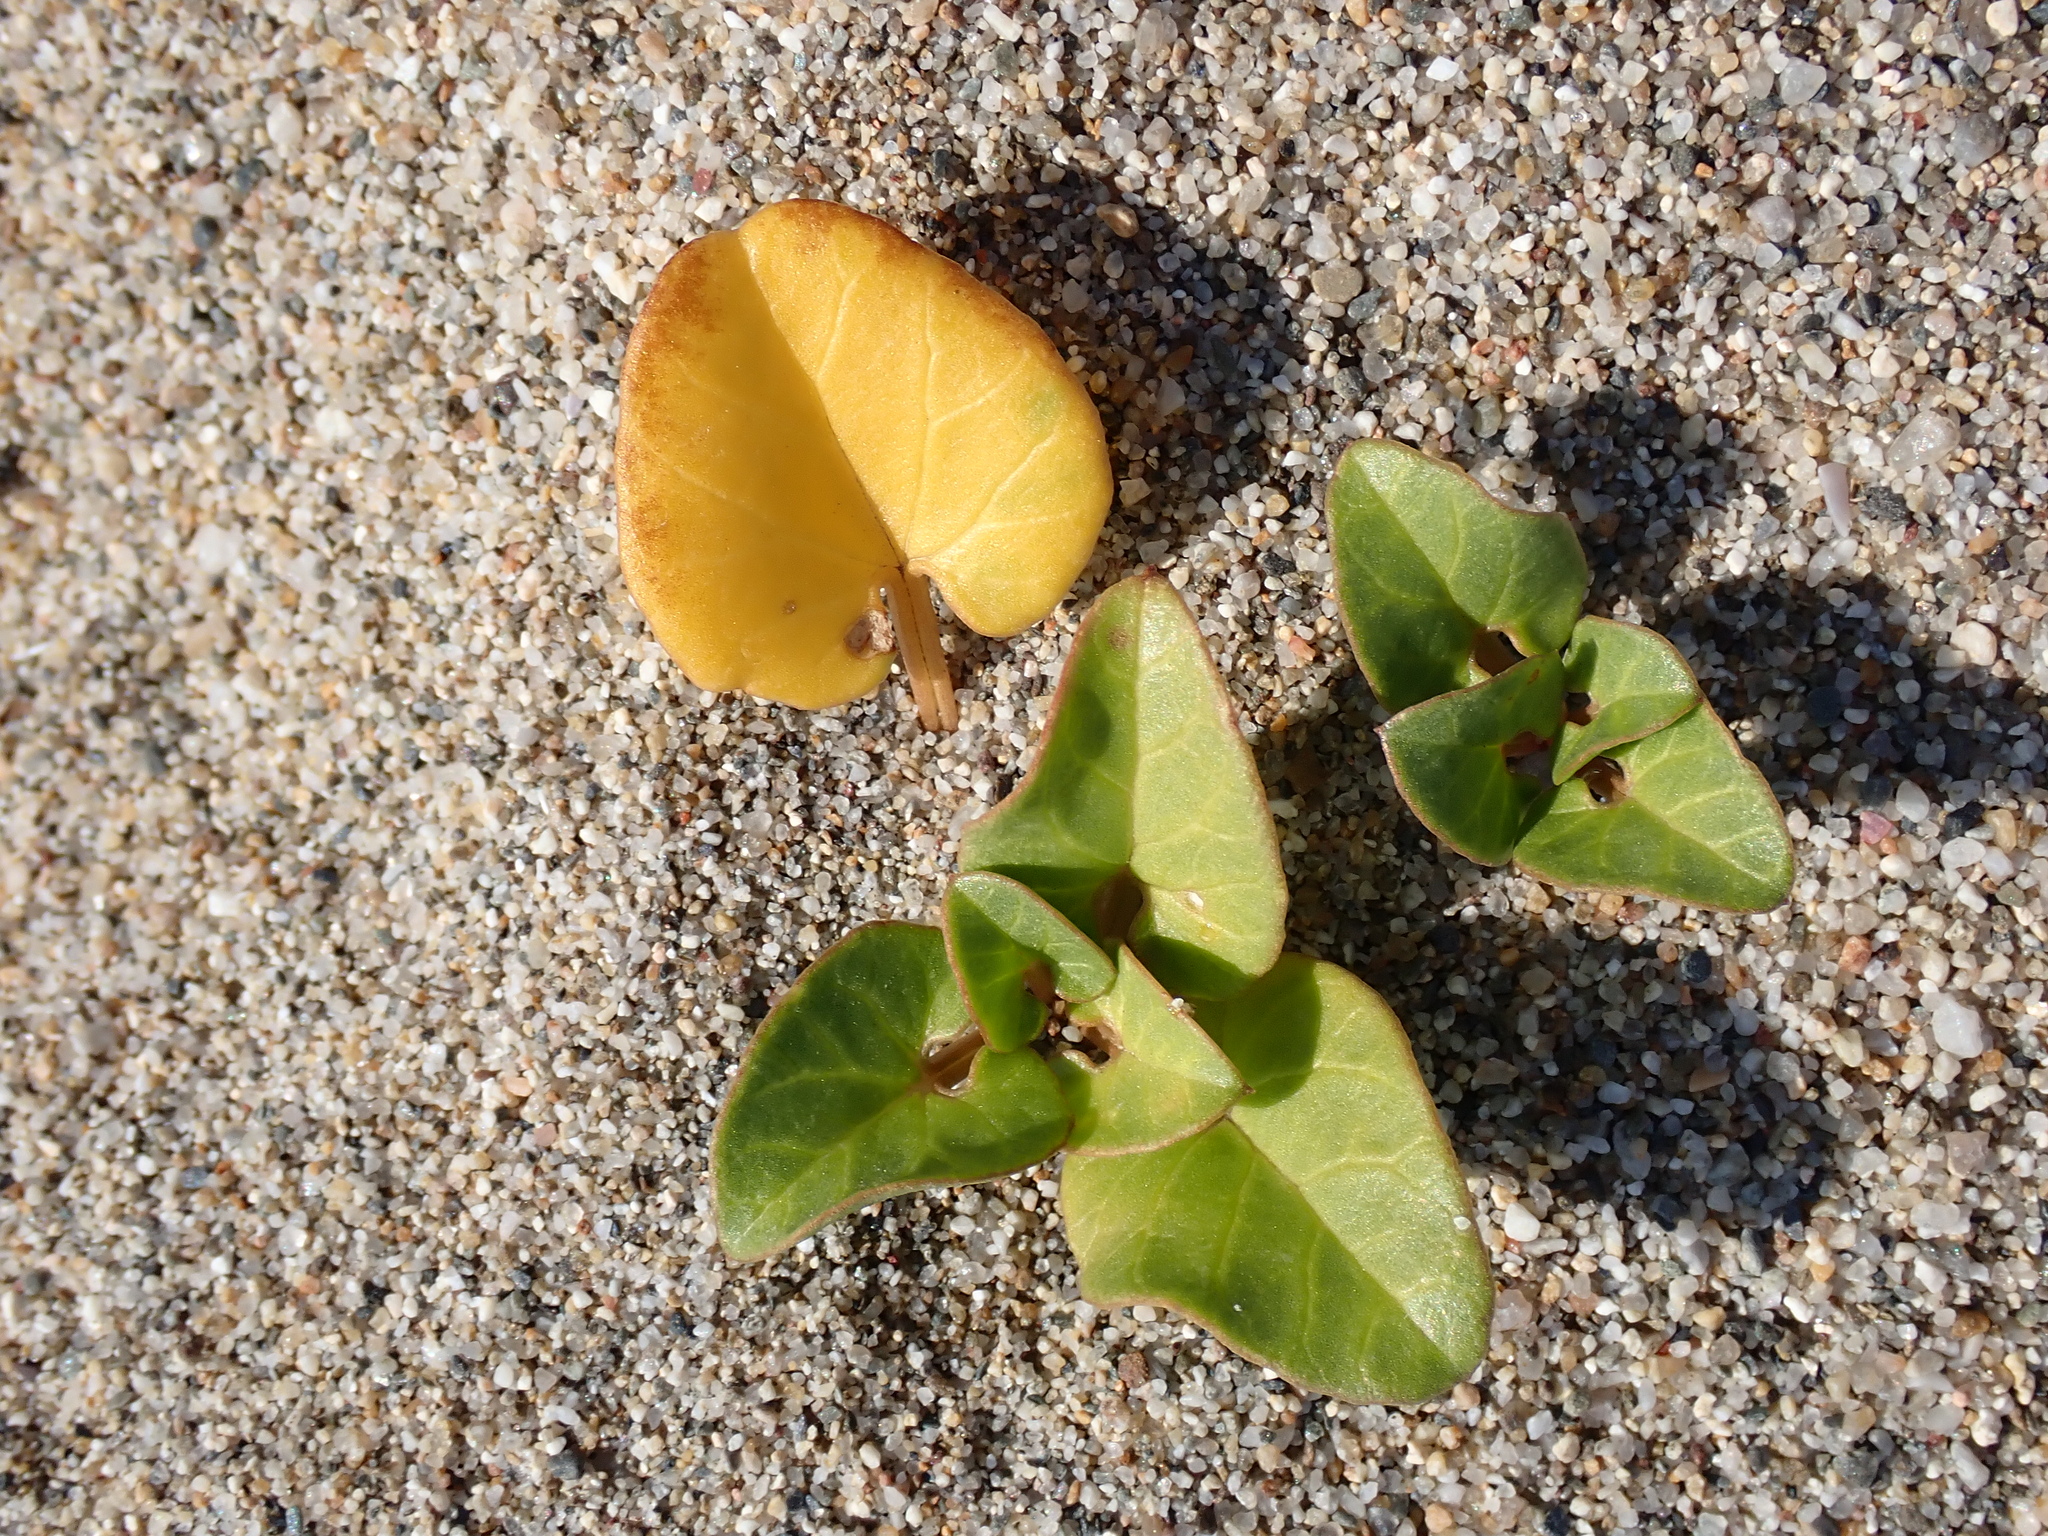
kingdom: Plantae
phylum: Tracheophyta
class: Magnoliopsida
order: Solanales
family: Convolvulaceae
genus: Calystegia
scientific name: Calystegia soldanella
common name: Sea bindweed
